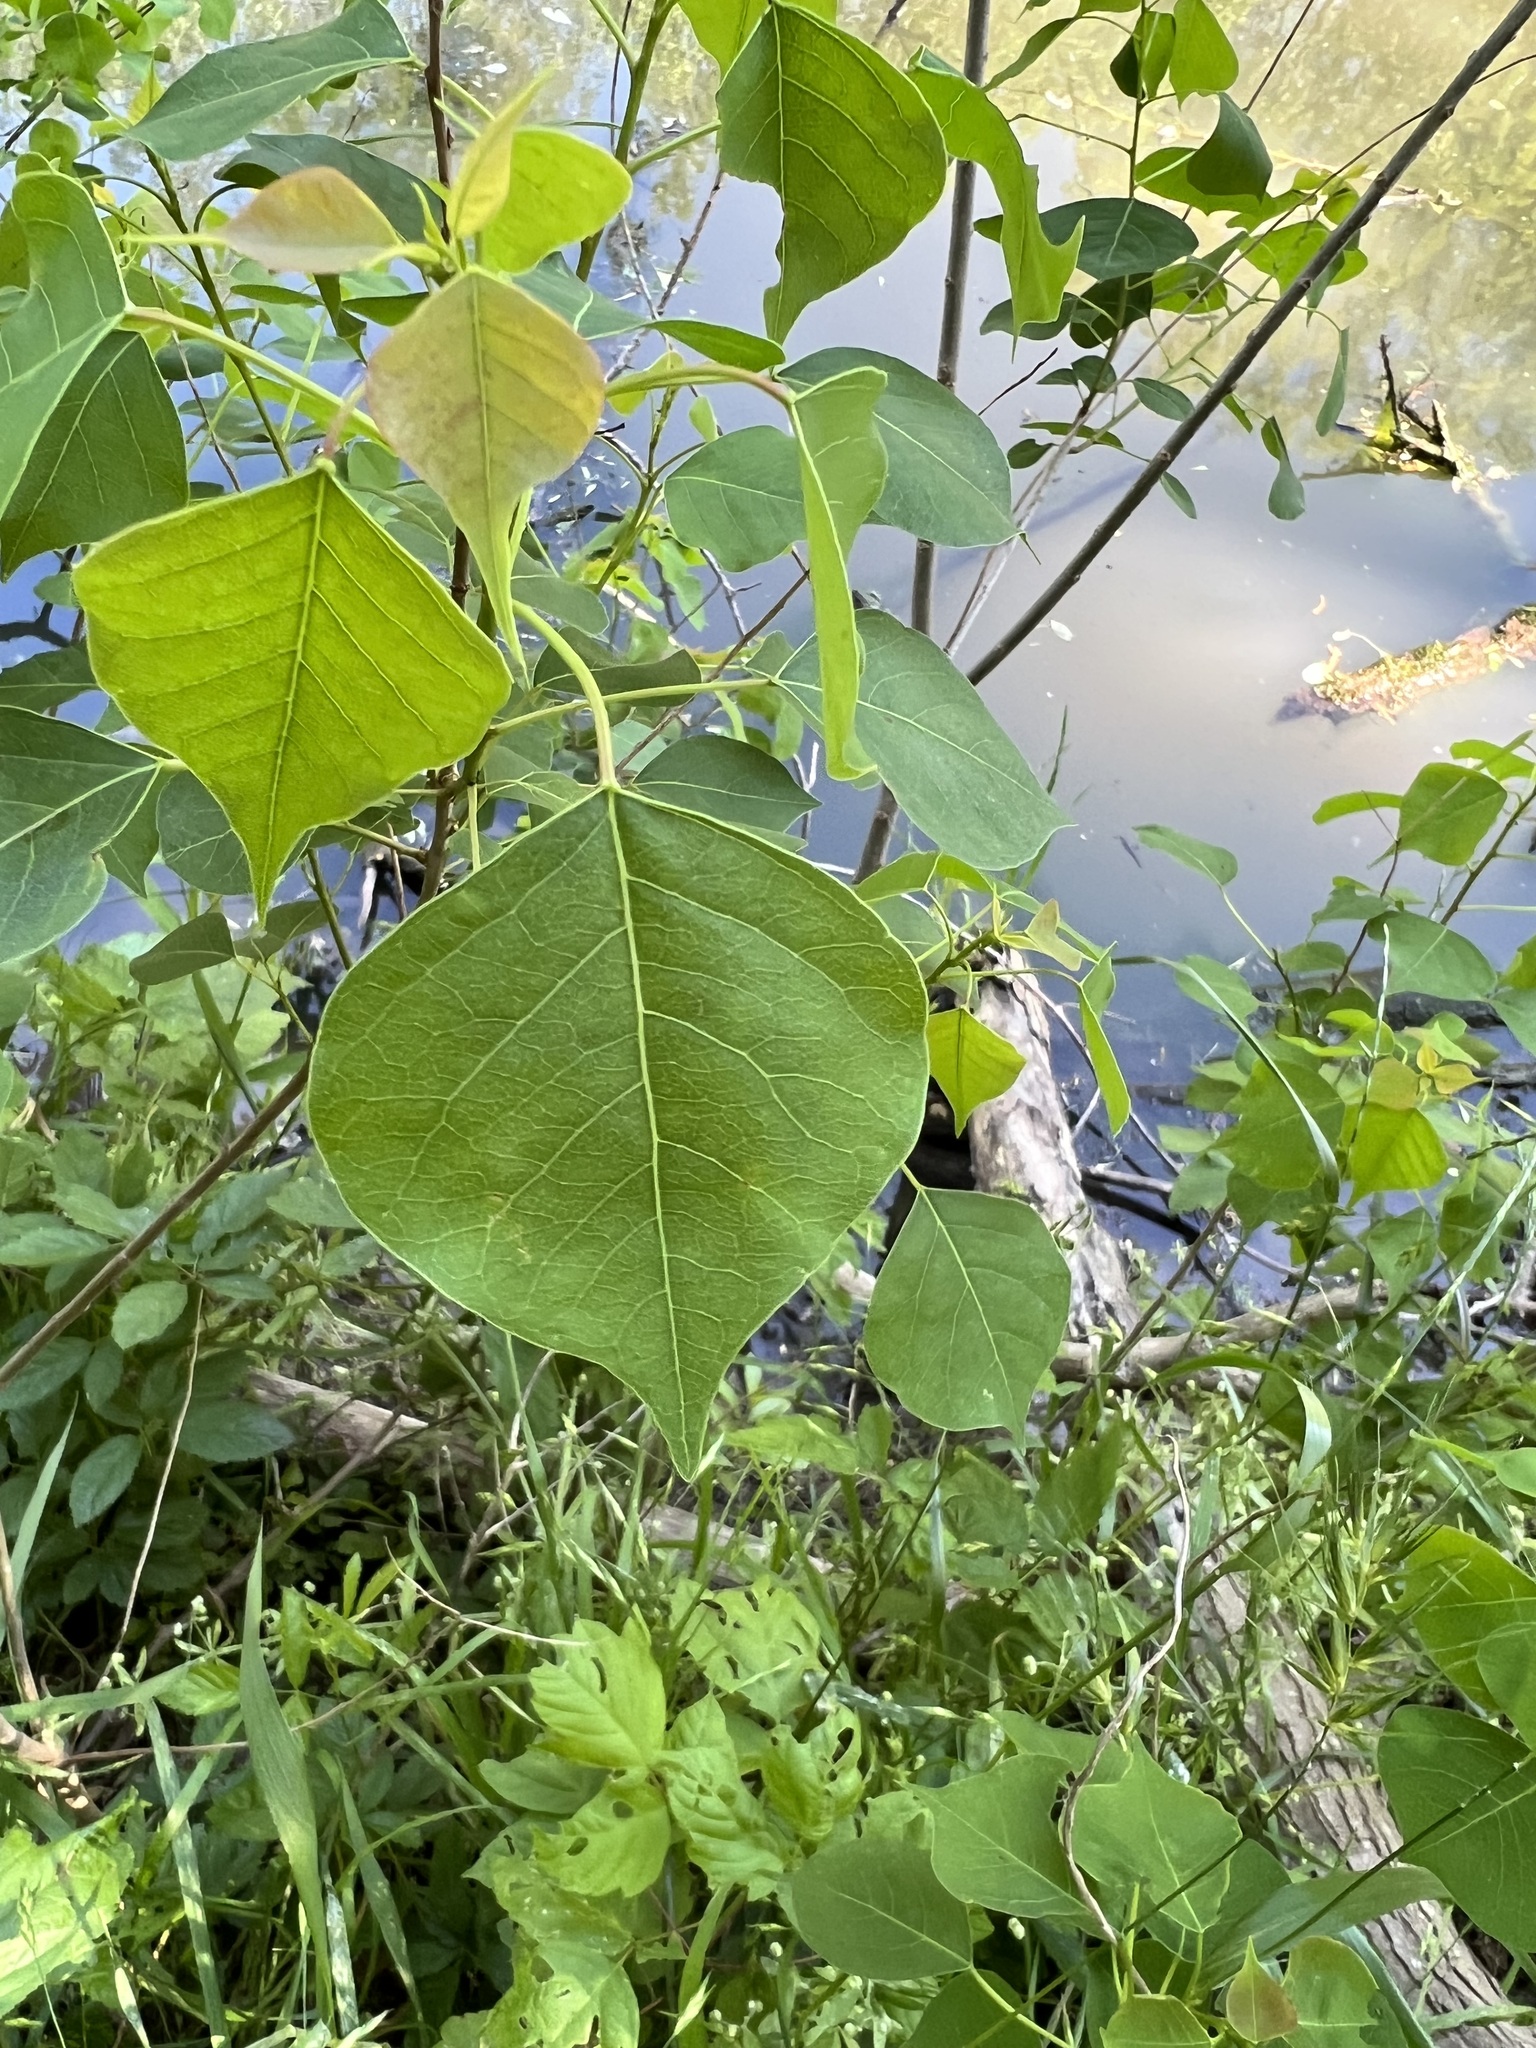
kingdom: Plantae
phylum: Tracheophyta
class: Magnoliopsida
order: Malpighiales
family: Euphorbiaceae
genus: Triadica
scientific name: Triadica sebifera
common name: Chinese tallow
